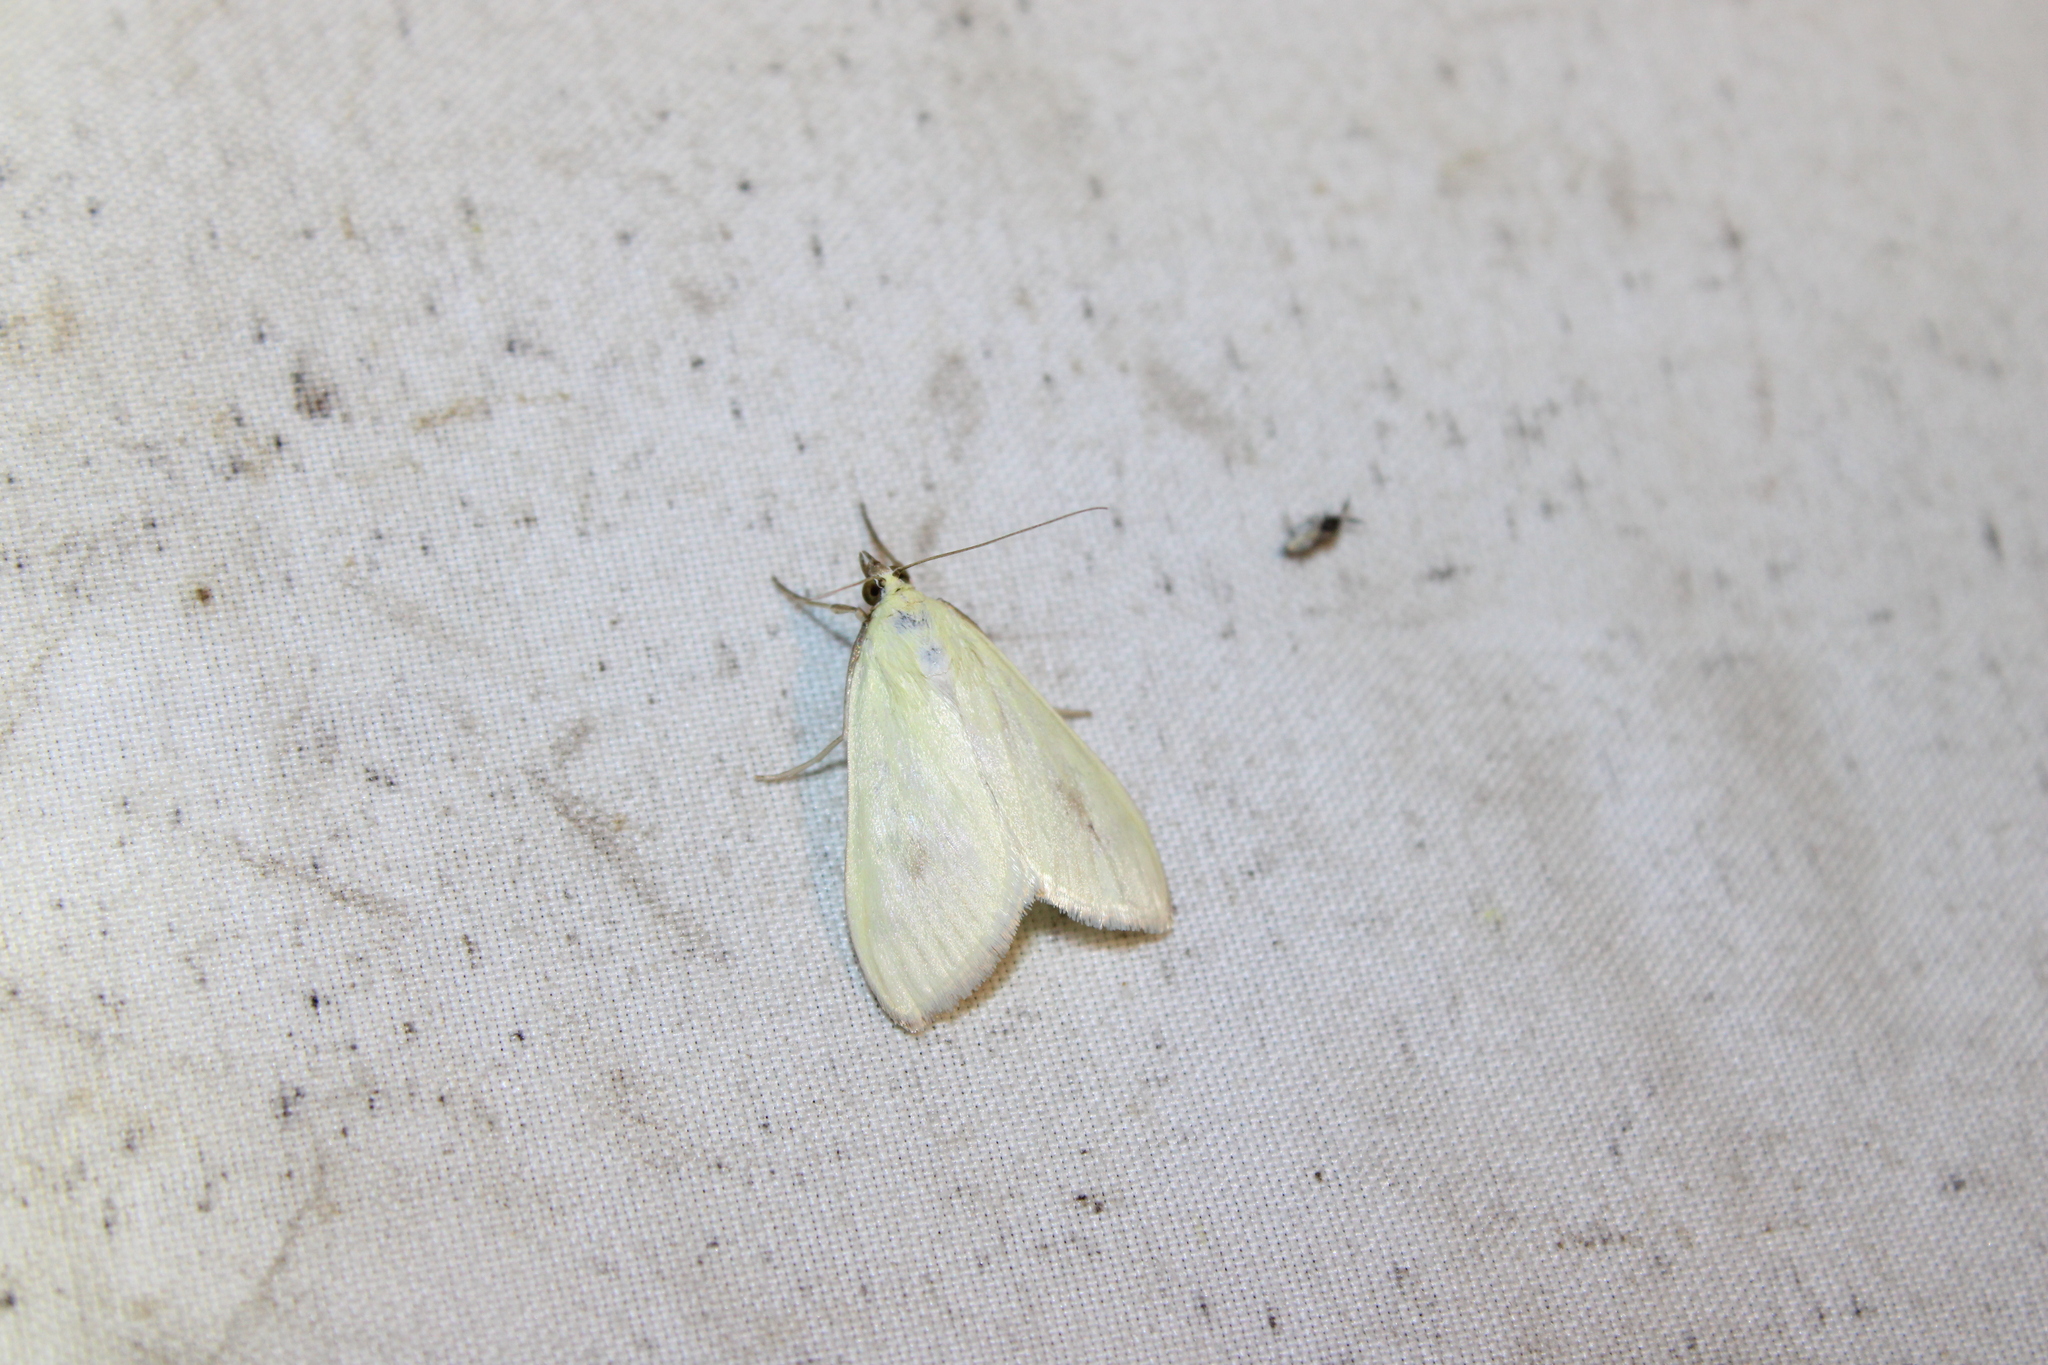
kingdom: Animalia
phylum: Arthropoda
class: Insecta
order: Lepidoptera
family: Crambidae
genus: Sitochroa
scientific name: Sitochroa palealis
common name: Greenish-yellow sitochroa moth
